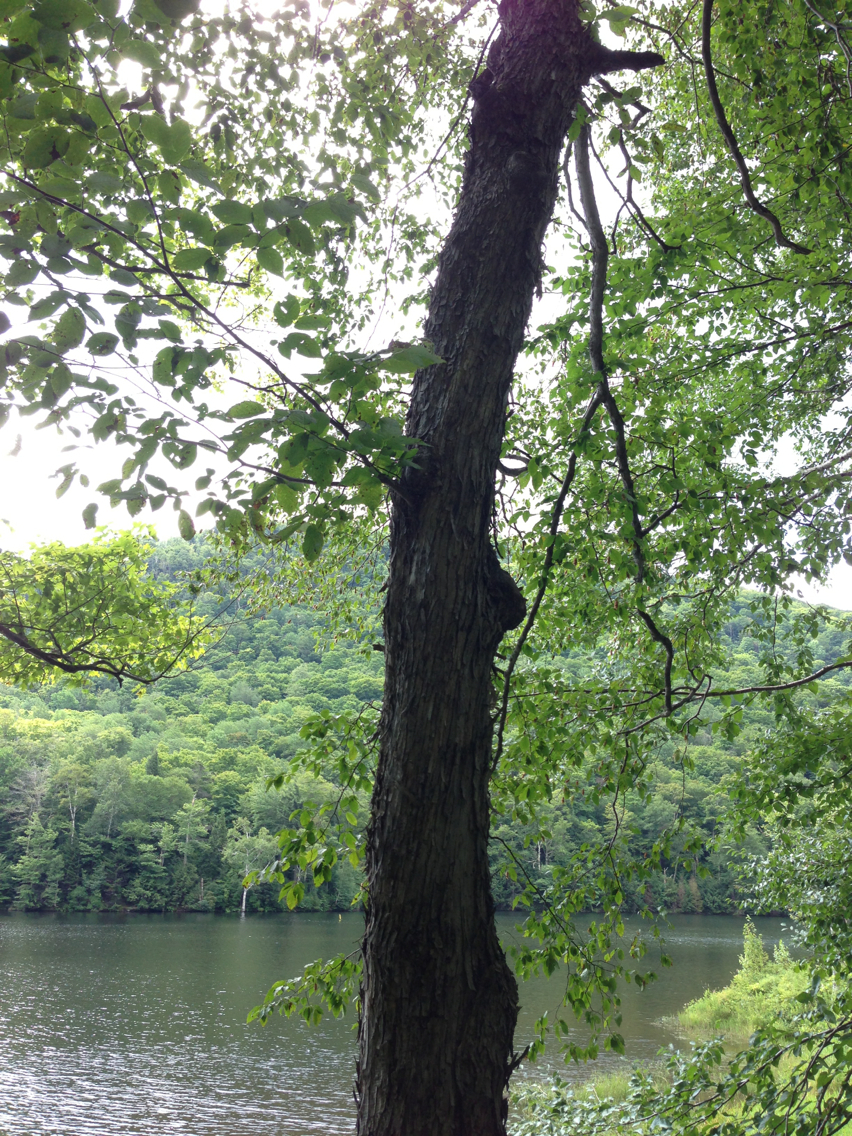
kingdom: Plantae
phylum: Tracheophyta
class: Magnoliopsida
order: Fagales
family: Betulaceae
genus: Ostrya
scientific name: Ostrya virginiana
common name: Ironwood
